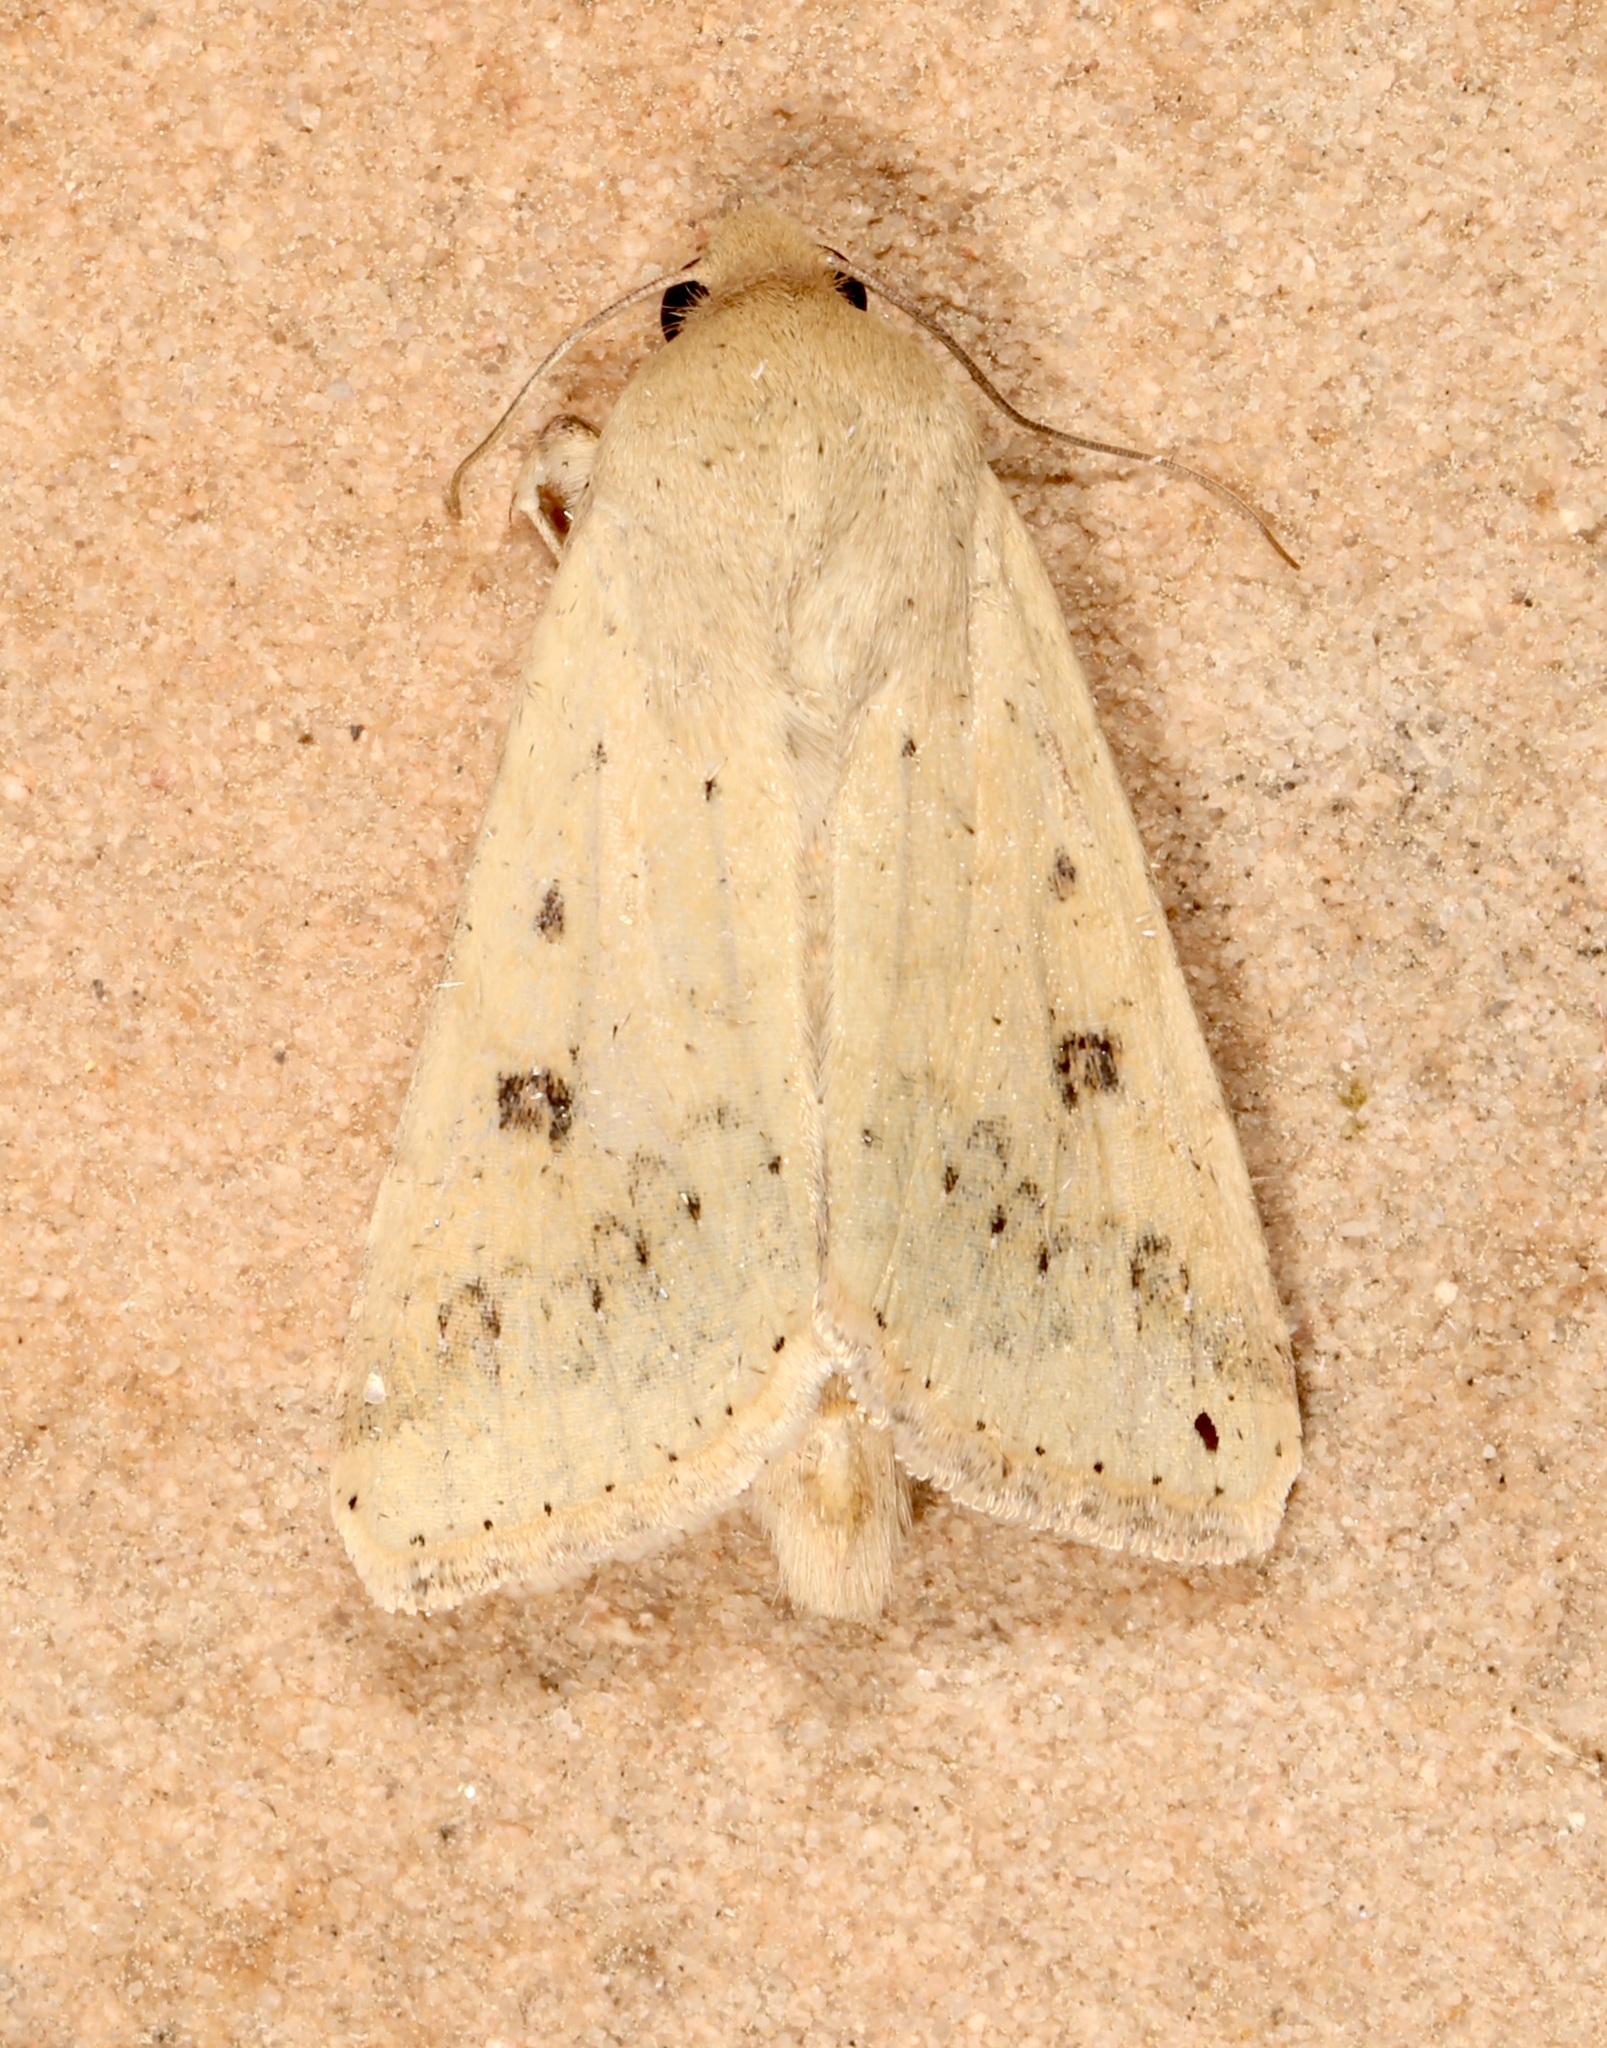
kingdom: Animalia
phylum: Arthropoda
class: Insecta
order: Lepidoptera
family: Noctuidae
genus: Helicoverpa
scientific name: Helicoverpa zea
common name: Bollworm
